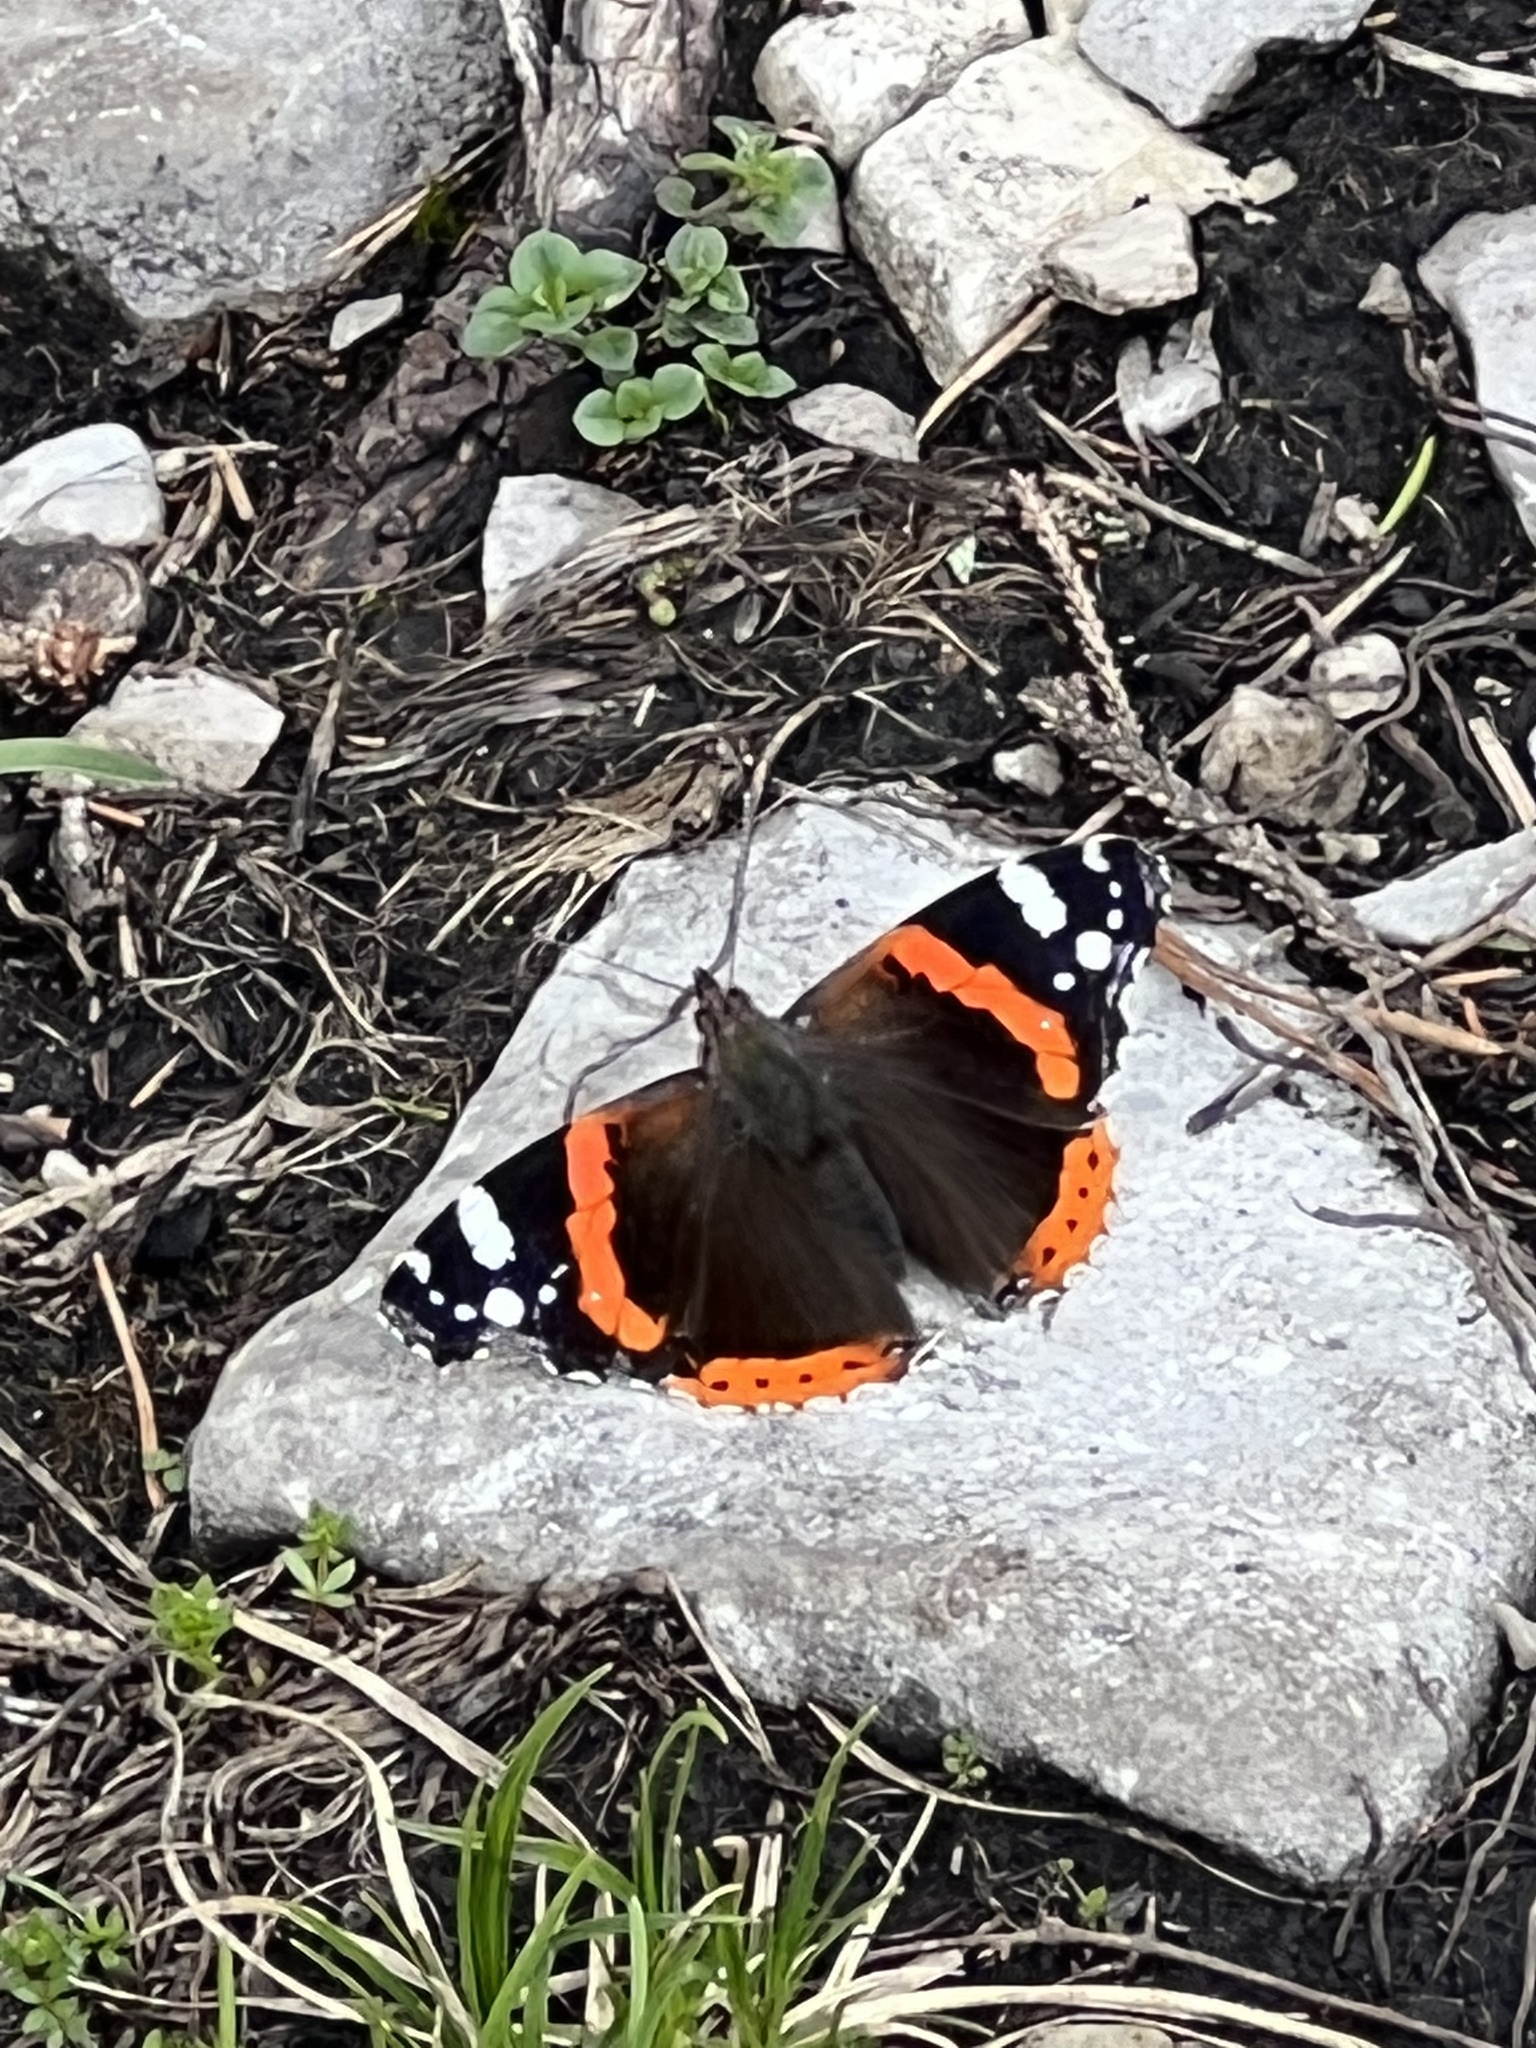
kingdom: Animalia
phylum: Arthropoda
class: Insecta
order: Lepidoptera
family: Nymphalidae
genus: Vanessa
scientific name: Vanessa atalanta
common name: Red admiral
